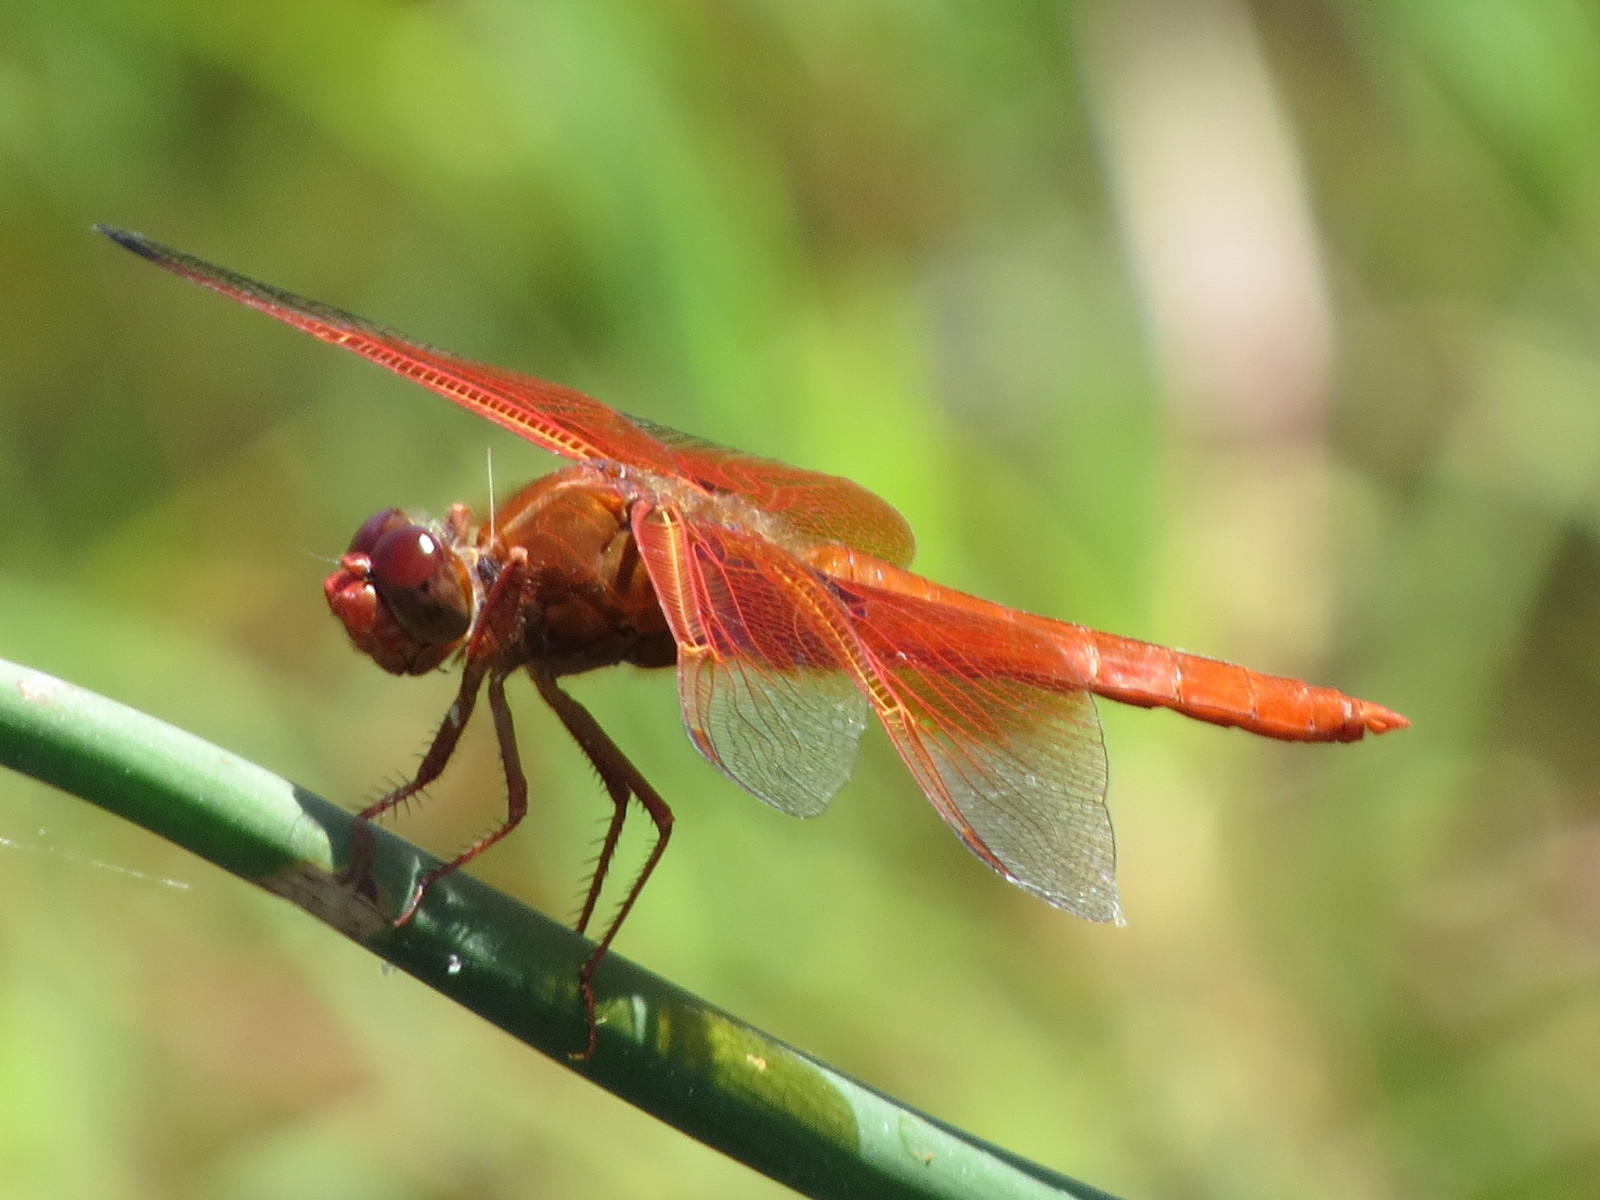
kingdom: Animalia
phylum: Arthropoda
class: Insecta
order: Odonata
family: Libellulidae
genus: Libellula
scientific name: Libellula saturata
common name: Flame skimmer
